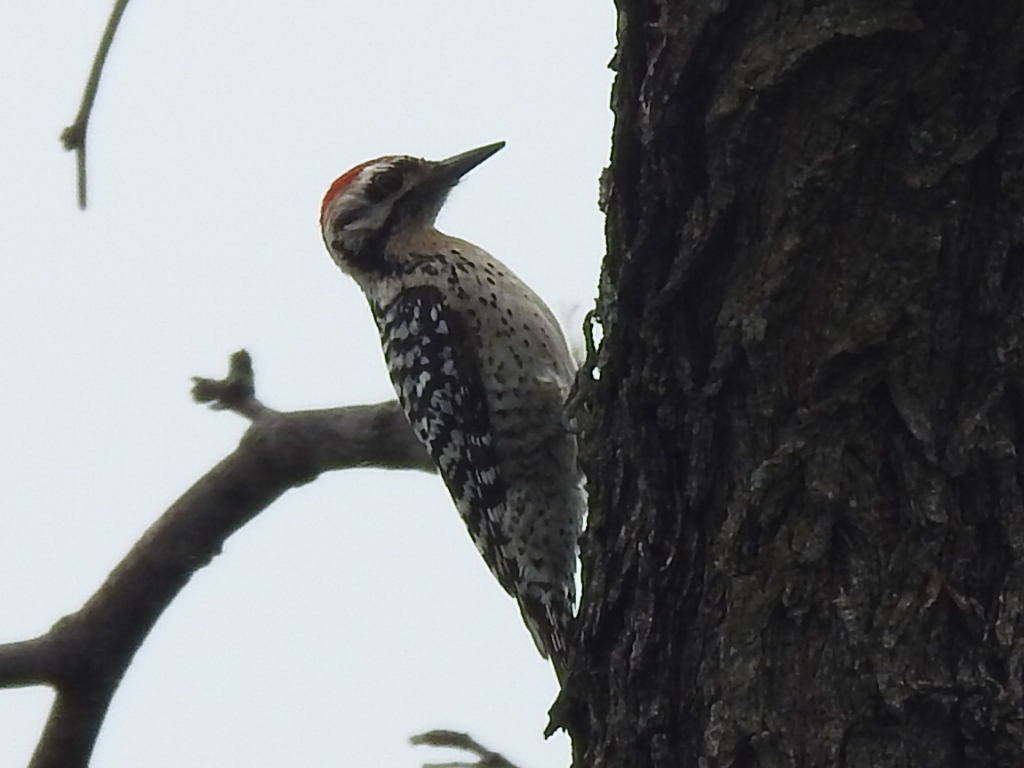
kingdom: Animalia
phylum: Chordata
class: Aves
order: Piciformes
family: Picidae
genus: Dryobates
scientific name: Dryobates scalaris
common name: Ladder-backed woodpecker
